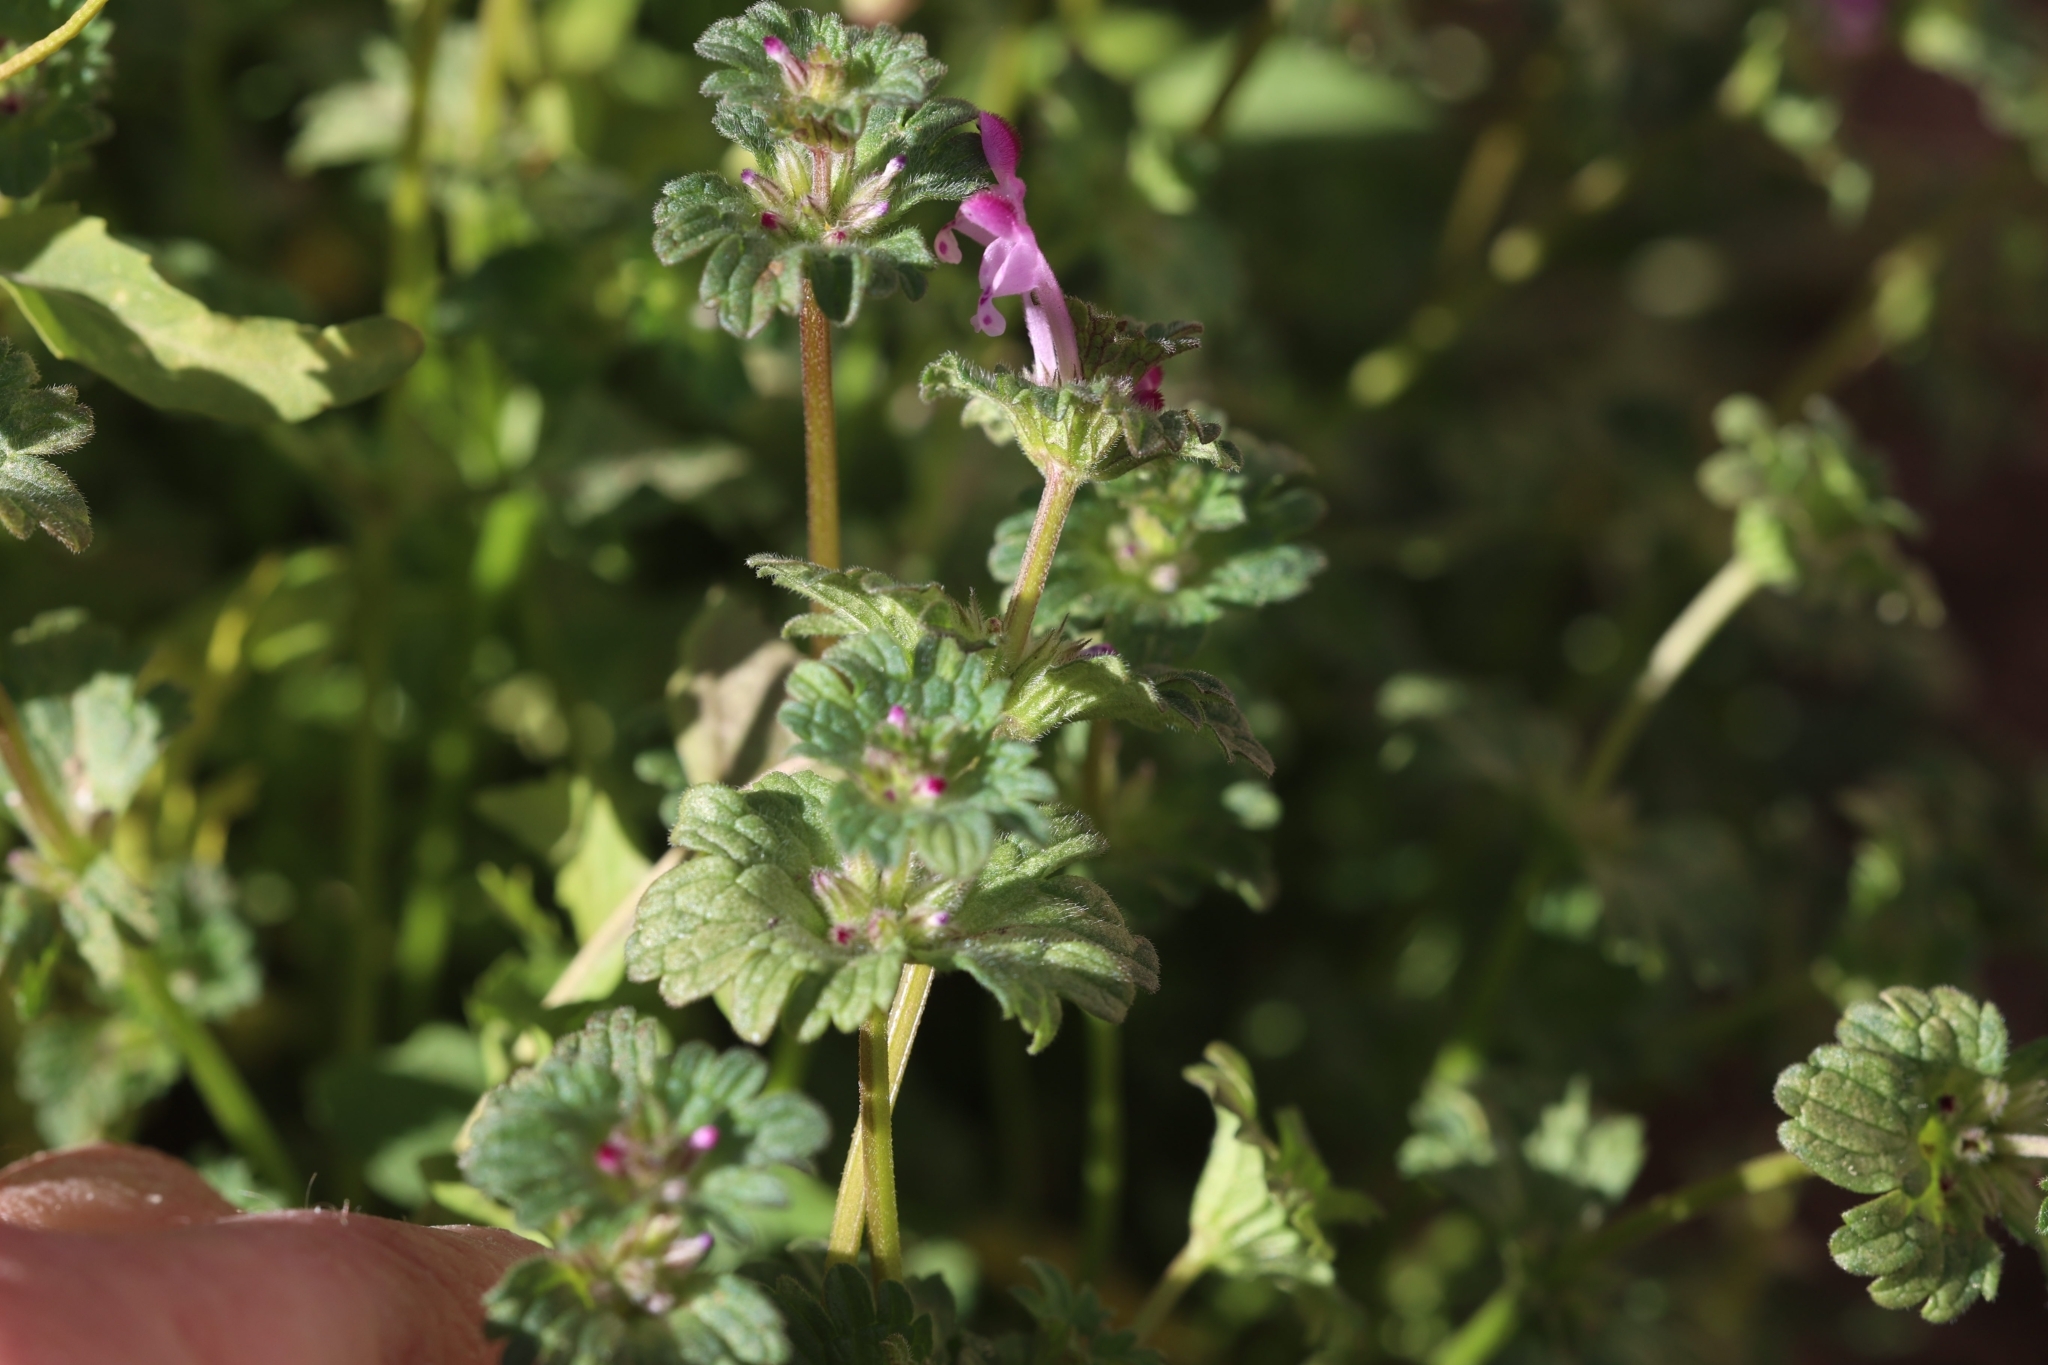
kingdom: Plantae
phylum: Tracheophyta
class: Magnoliopsida
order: Lamiales
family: Lamiaceae
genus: Lamium
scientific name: Lamium amplexicaule
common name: Henbit dead-nettle
